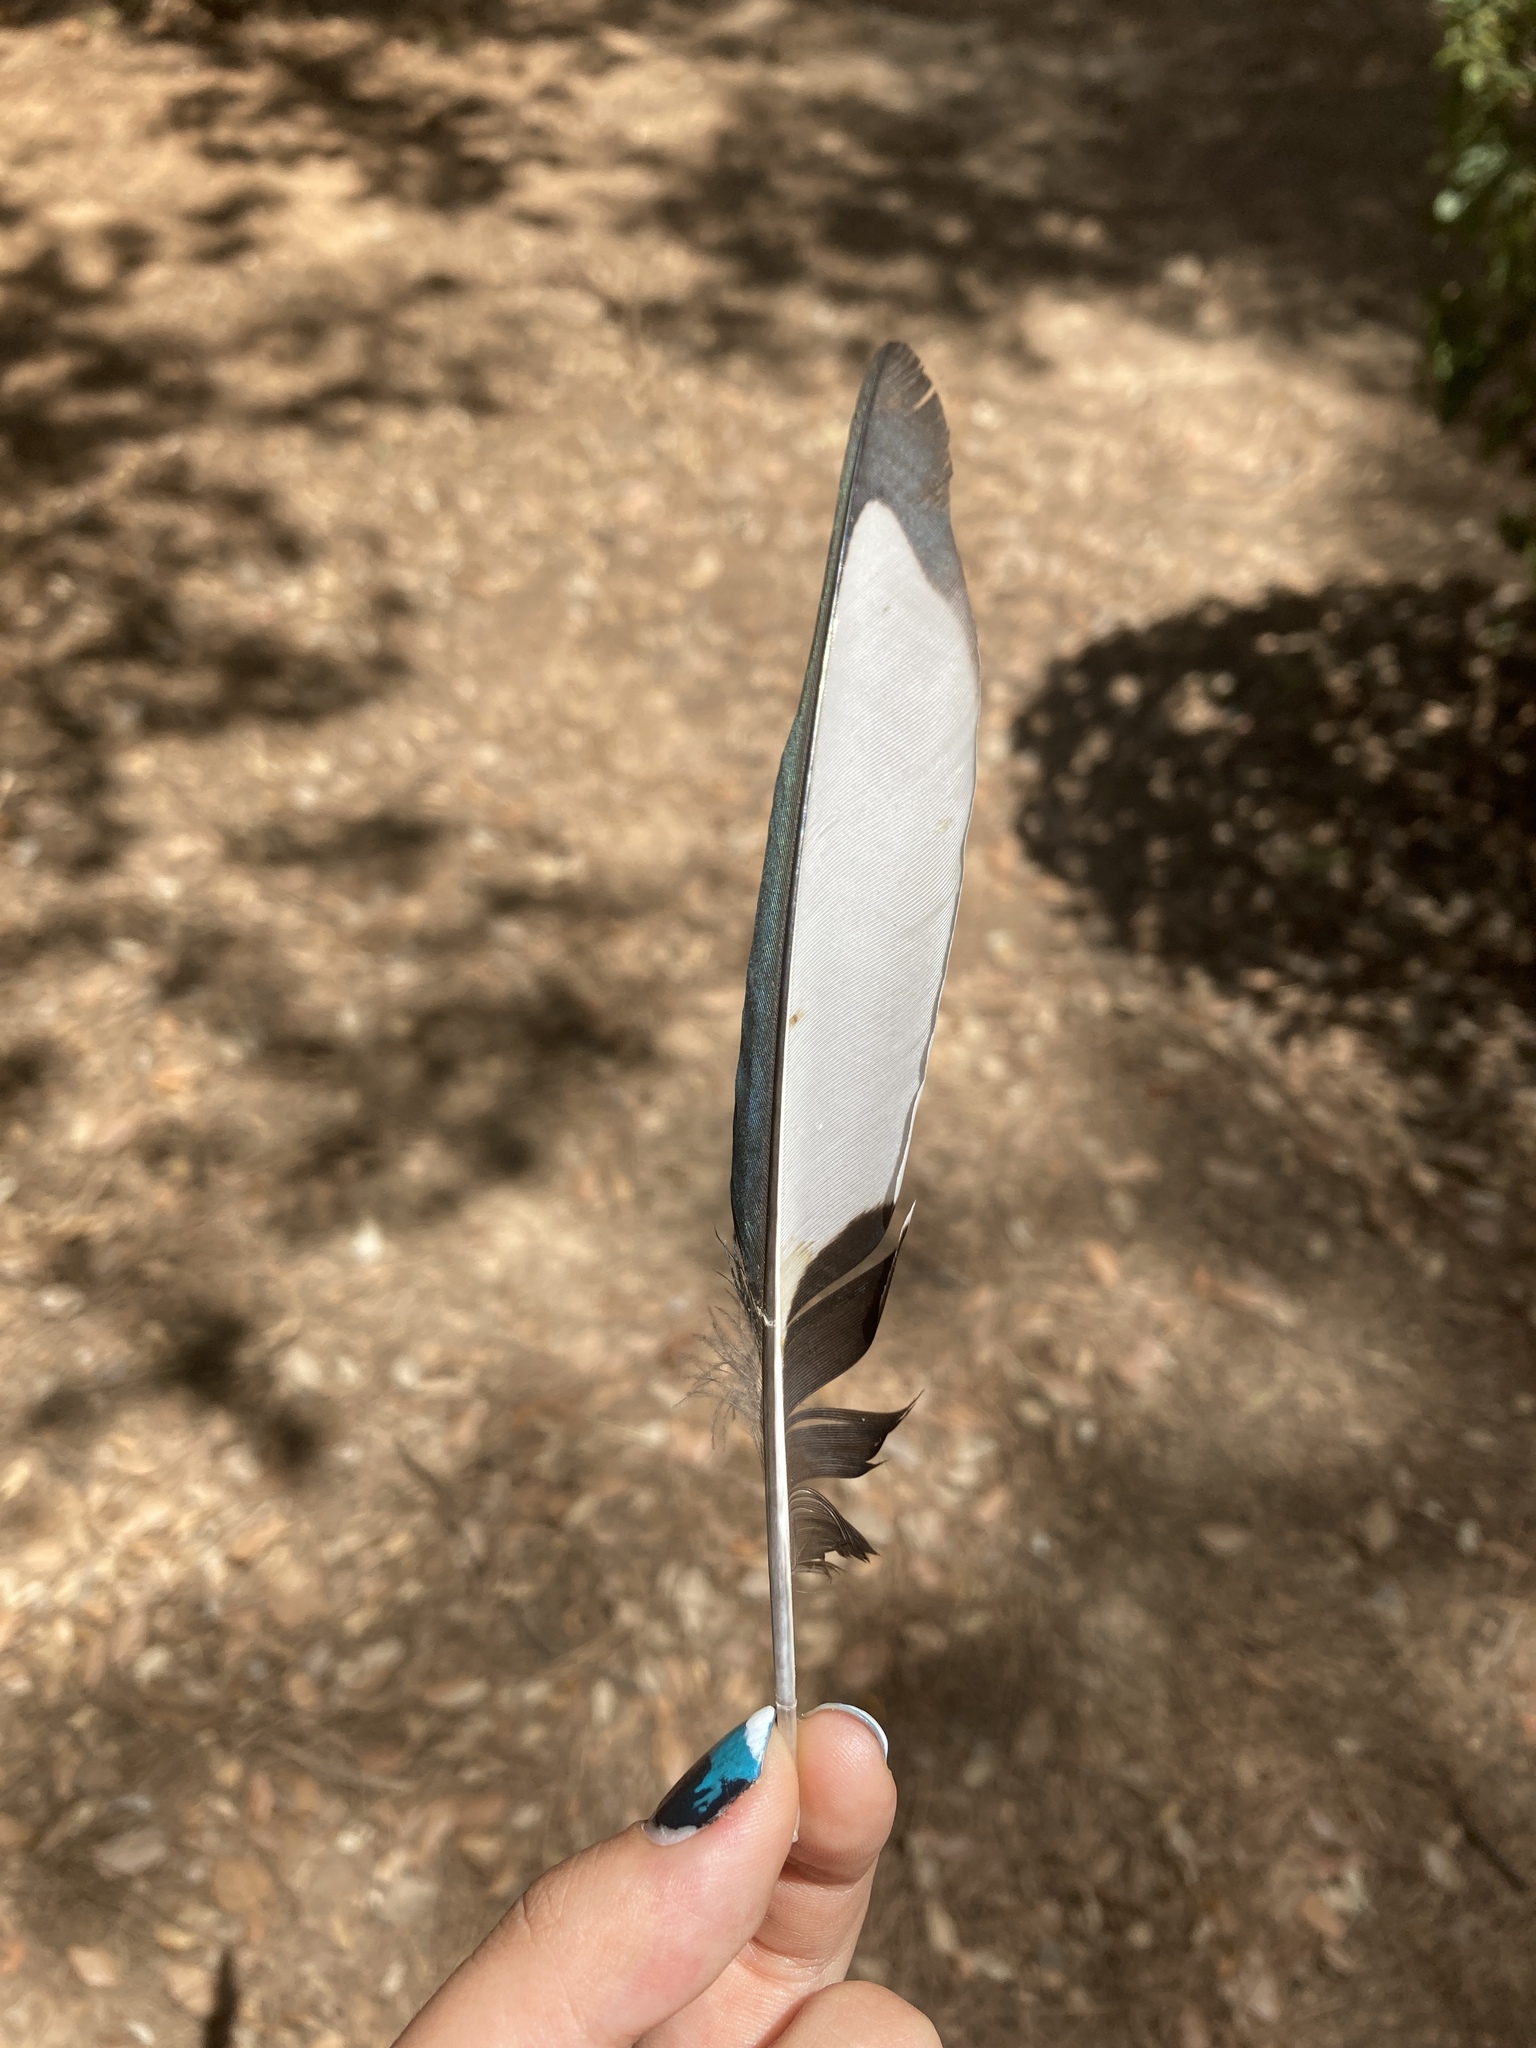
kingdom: Animalia
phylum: Chordata
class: Aves
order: Passeriformes
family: Corvidae
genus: Pica
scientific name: Pica pica
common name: Eurasian magpie
